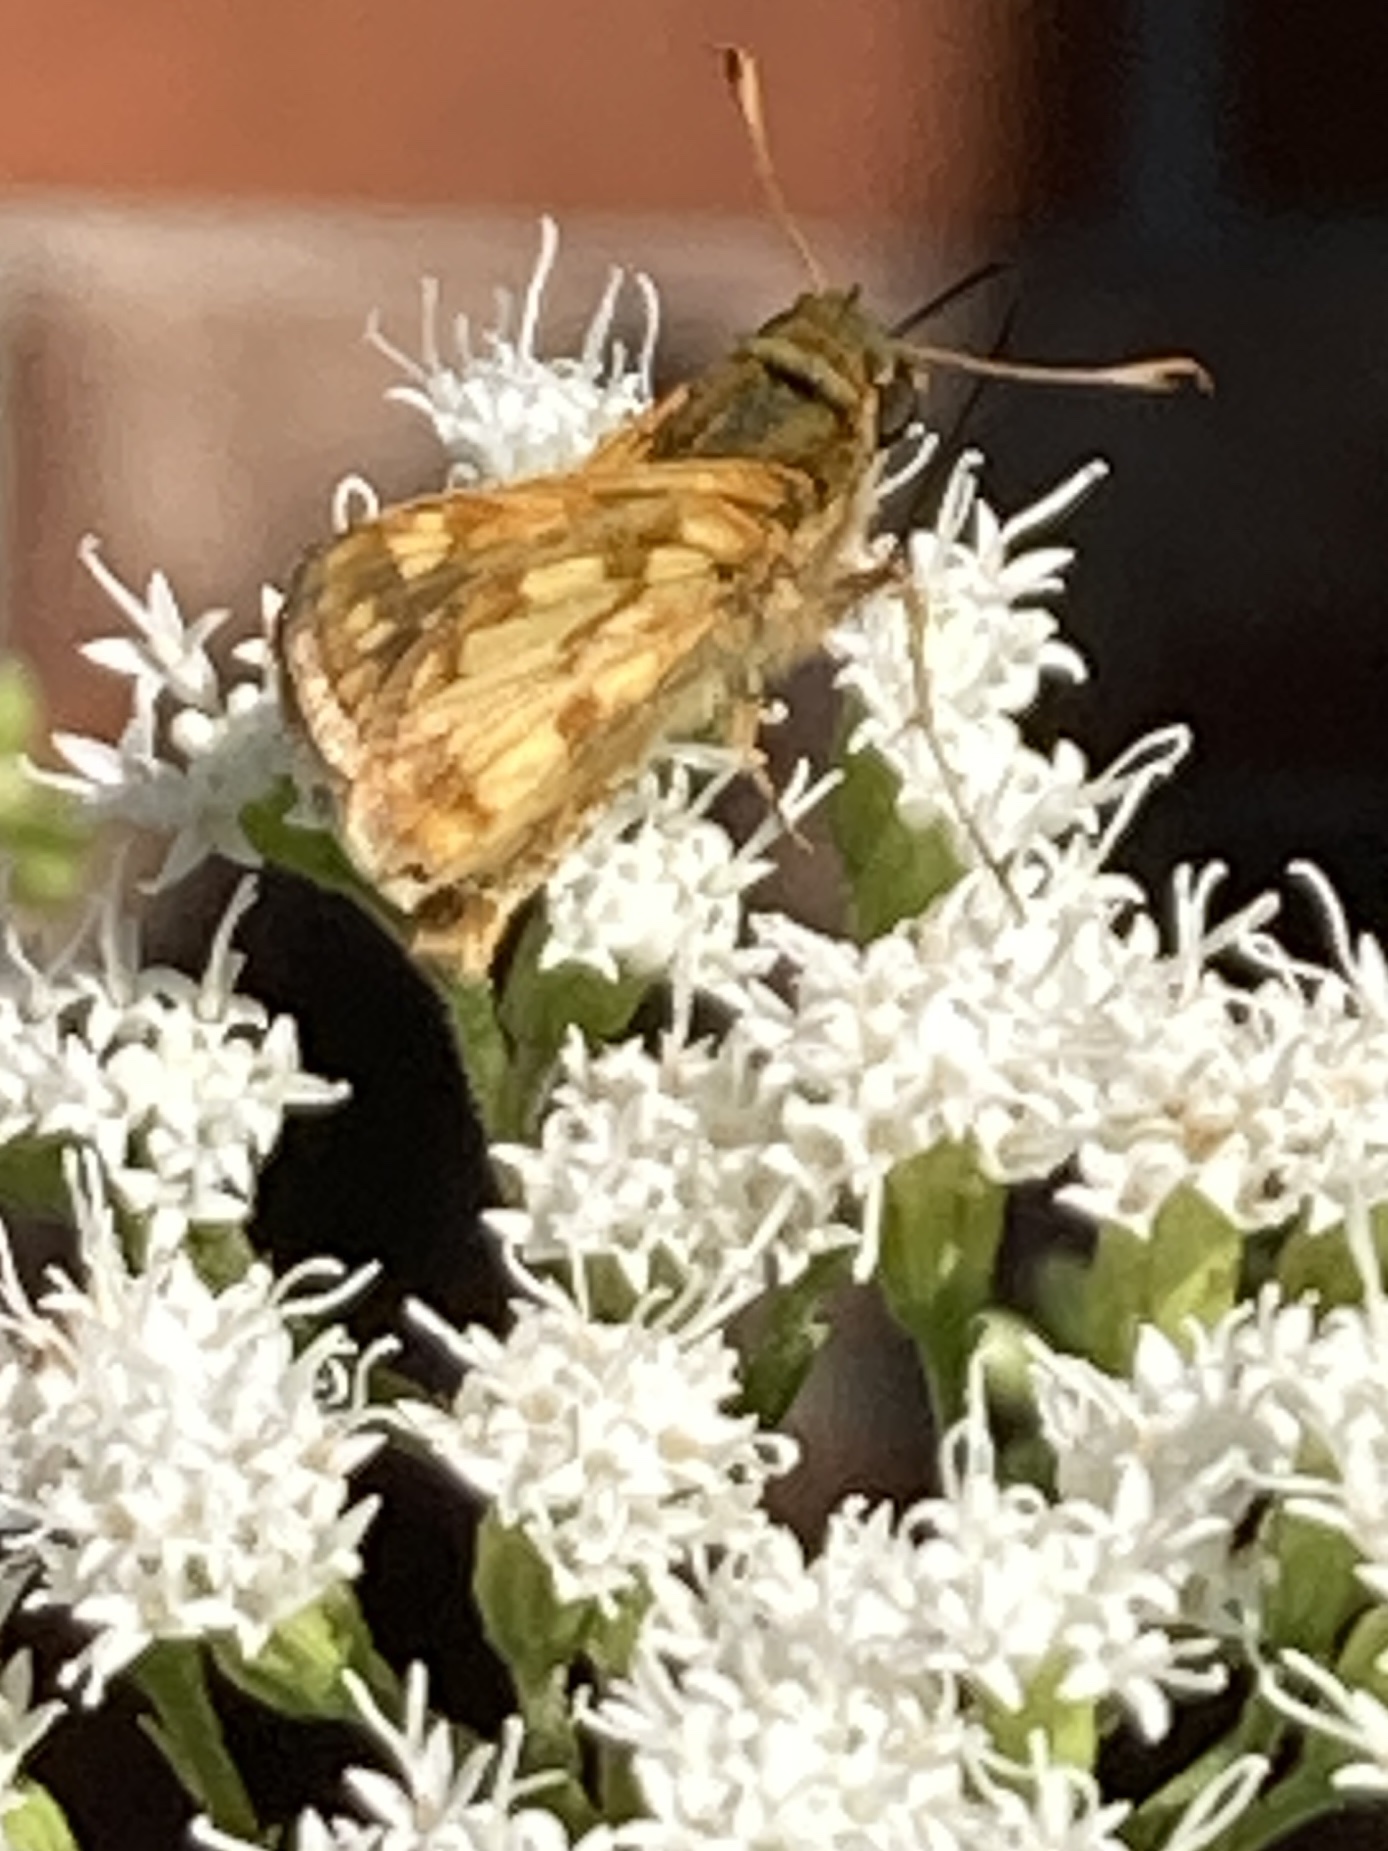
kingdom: Animalia
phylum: Arthropoda
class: Insecta
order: Lepidoptera
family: Hesperiidae
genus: Polites
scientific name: Polites coras
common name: Peck's skipper
